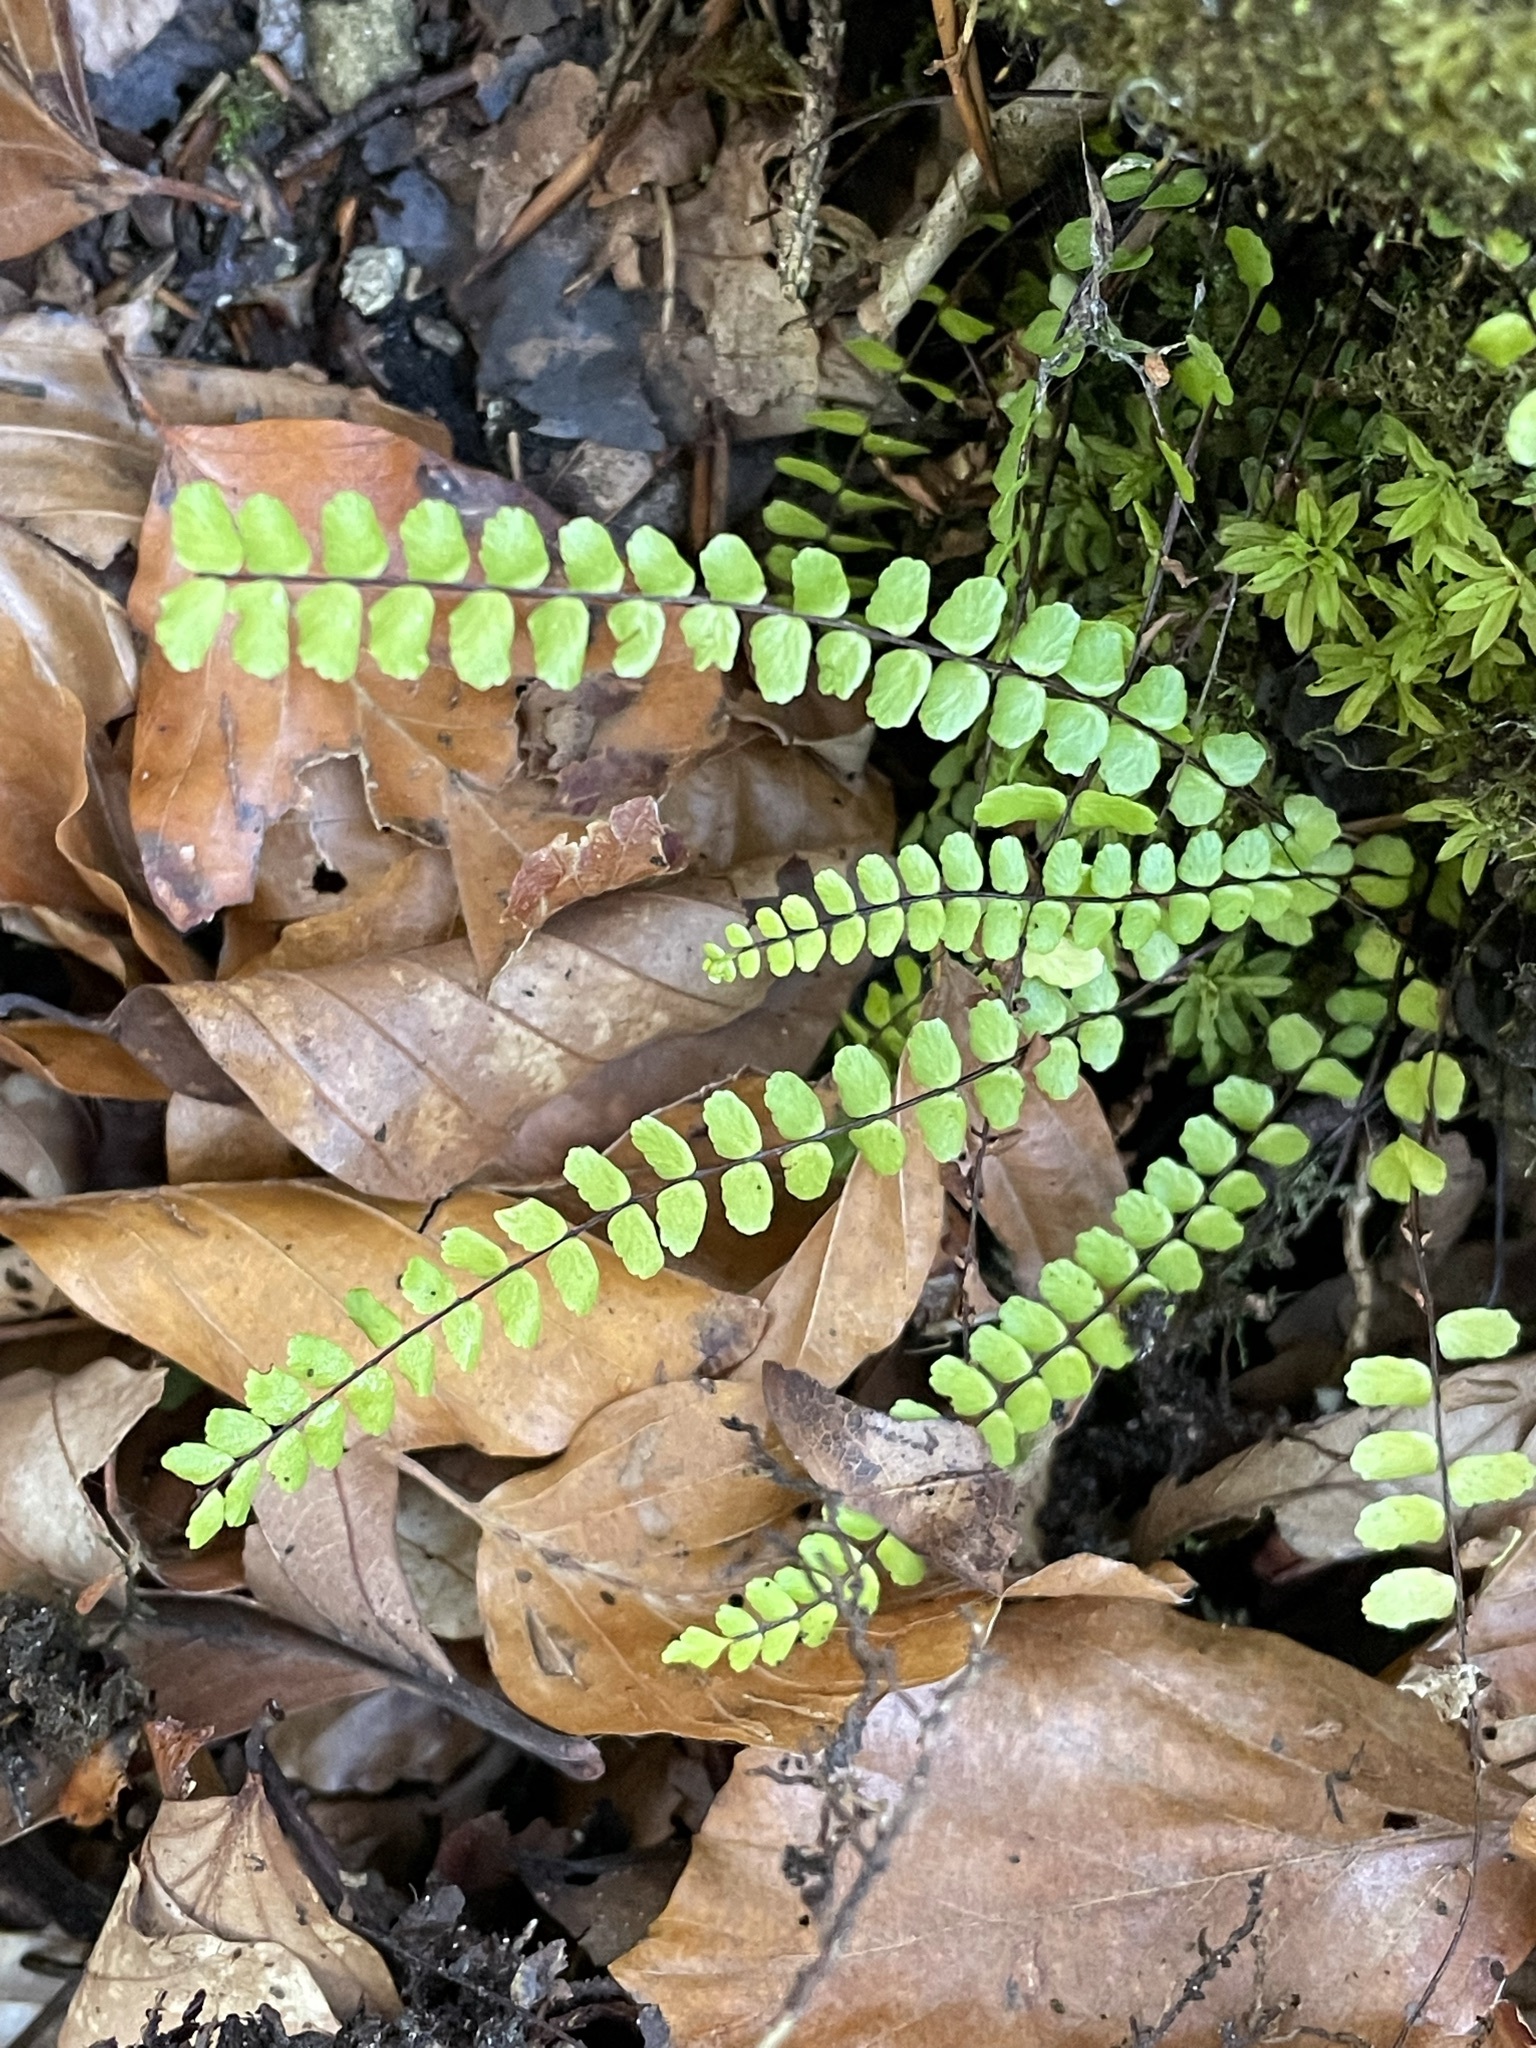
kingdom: Plantae
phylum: Tracheophyta
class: Polypodiopsida
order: Polypodiales
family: Aspleniaceae
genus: Asplenium
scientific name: Asplenium trichomanes
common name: Maidenhair spleenwort
